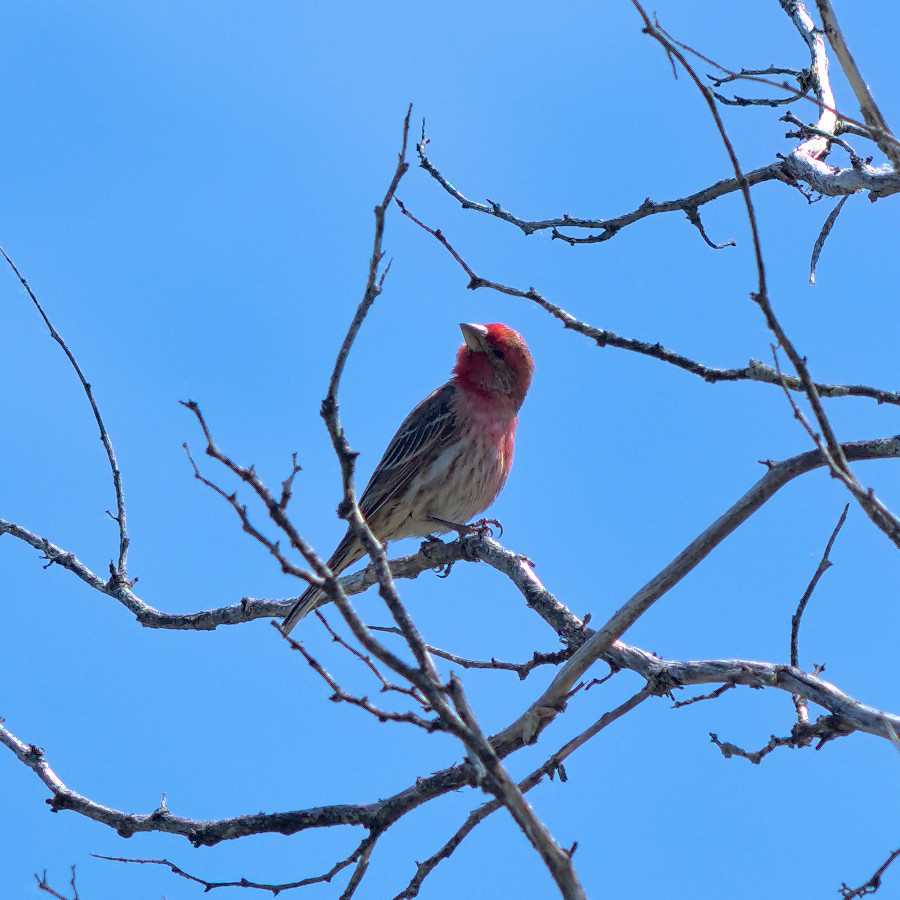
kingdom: Animalia
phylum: Chordata
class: Aves
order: Passeriformes
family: Fringillidae
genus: Haemorhous
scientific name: Haemorhous mexicanus
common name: House finch
